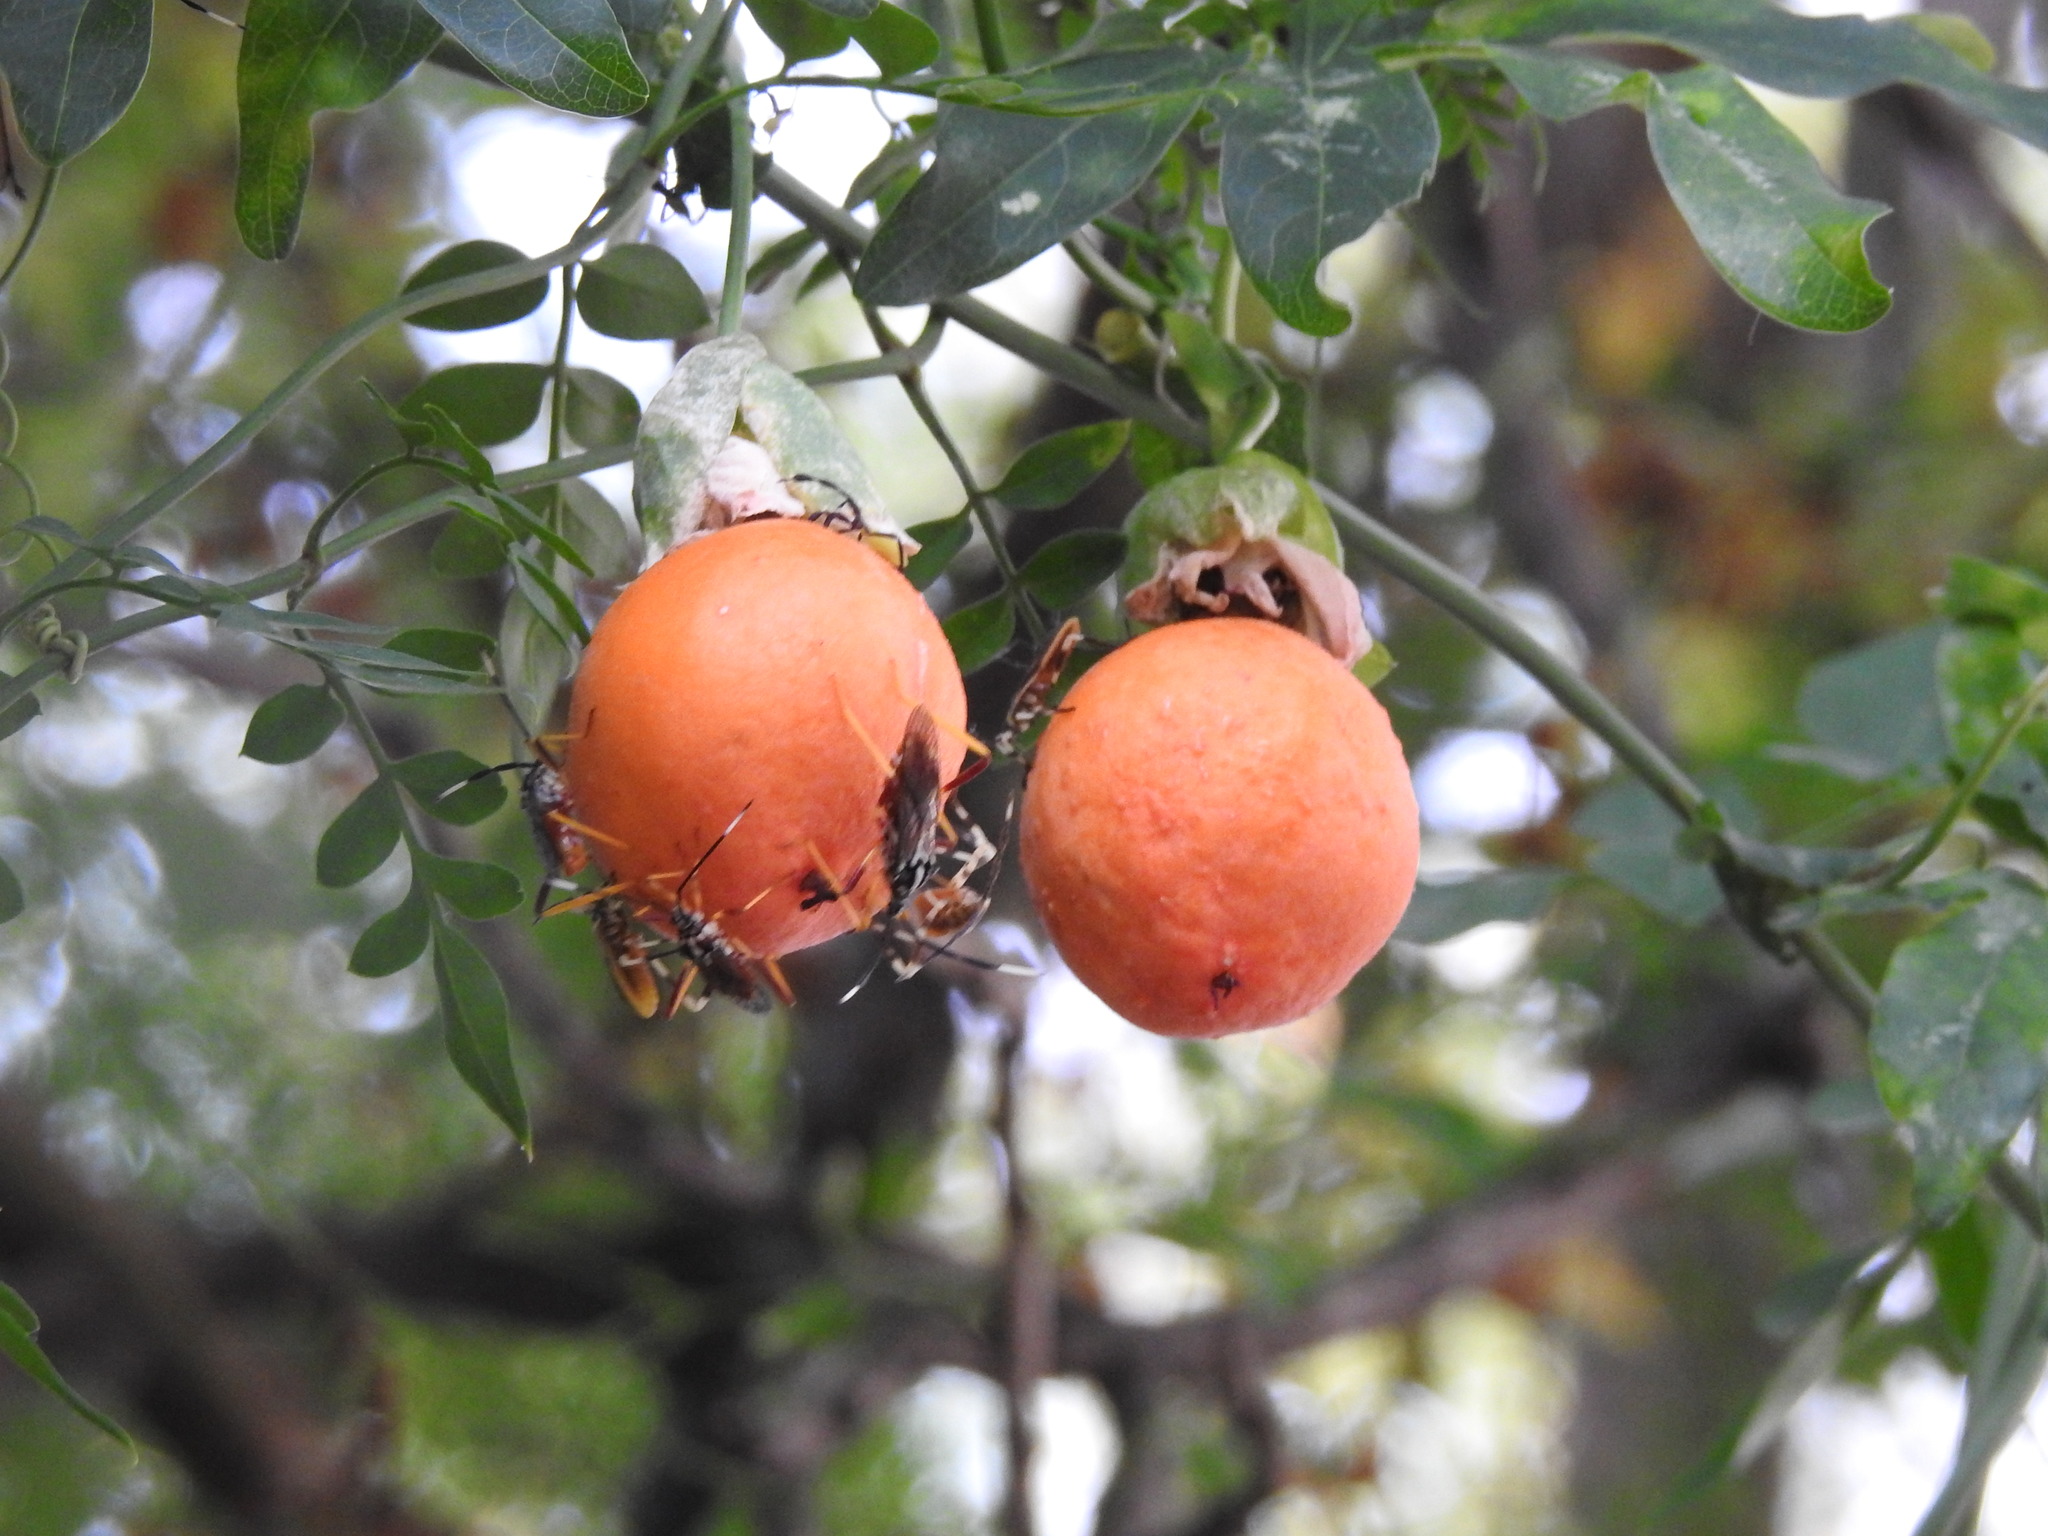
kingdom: Plantae
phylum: Tracheophyta
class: Magnoliopsida
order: Malpighiales
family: Passifloraceae
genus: Passiflora
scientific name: Passiflora caerulea
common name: Blue passionflower
